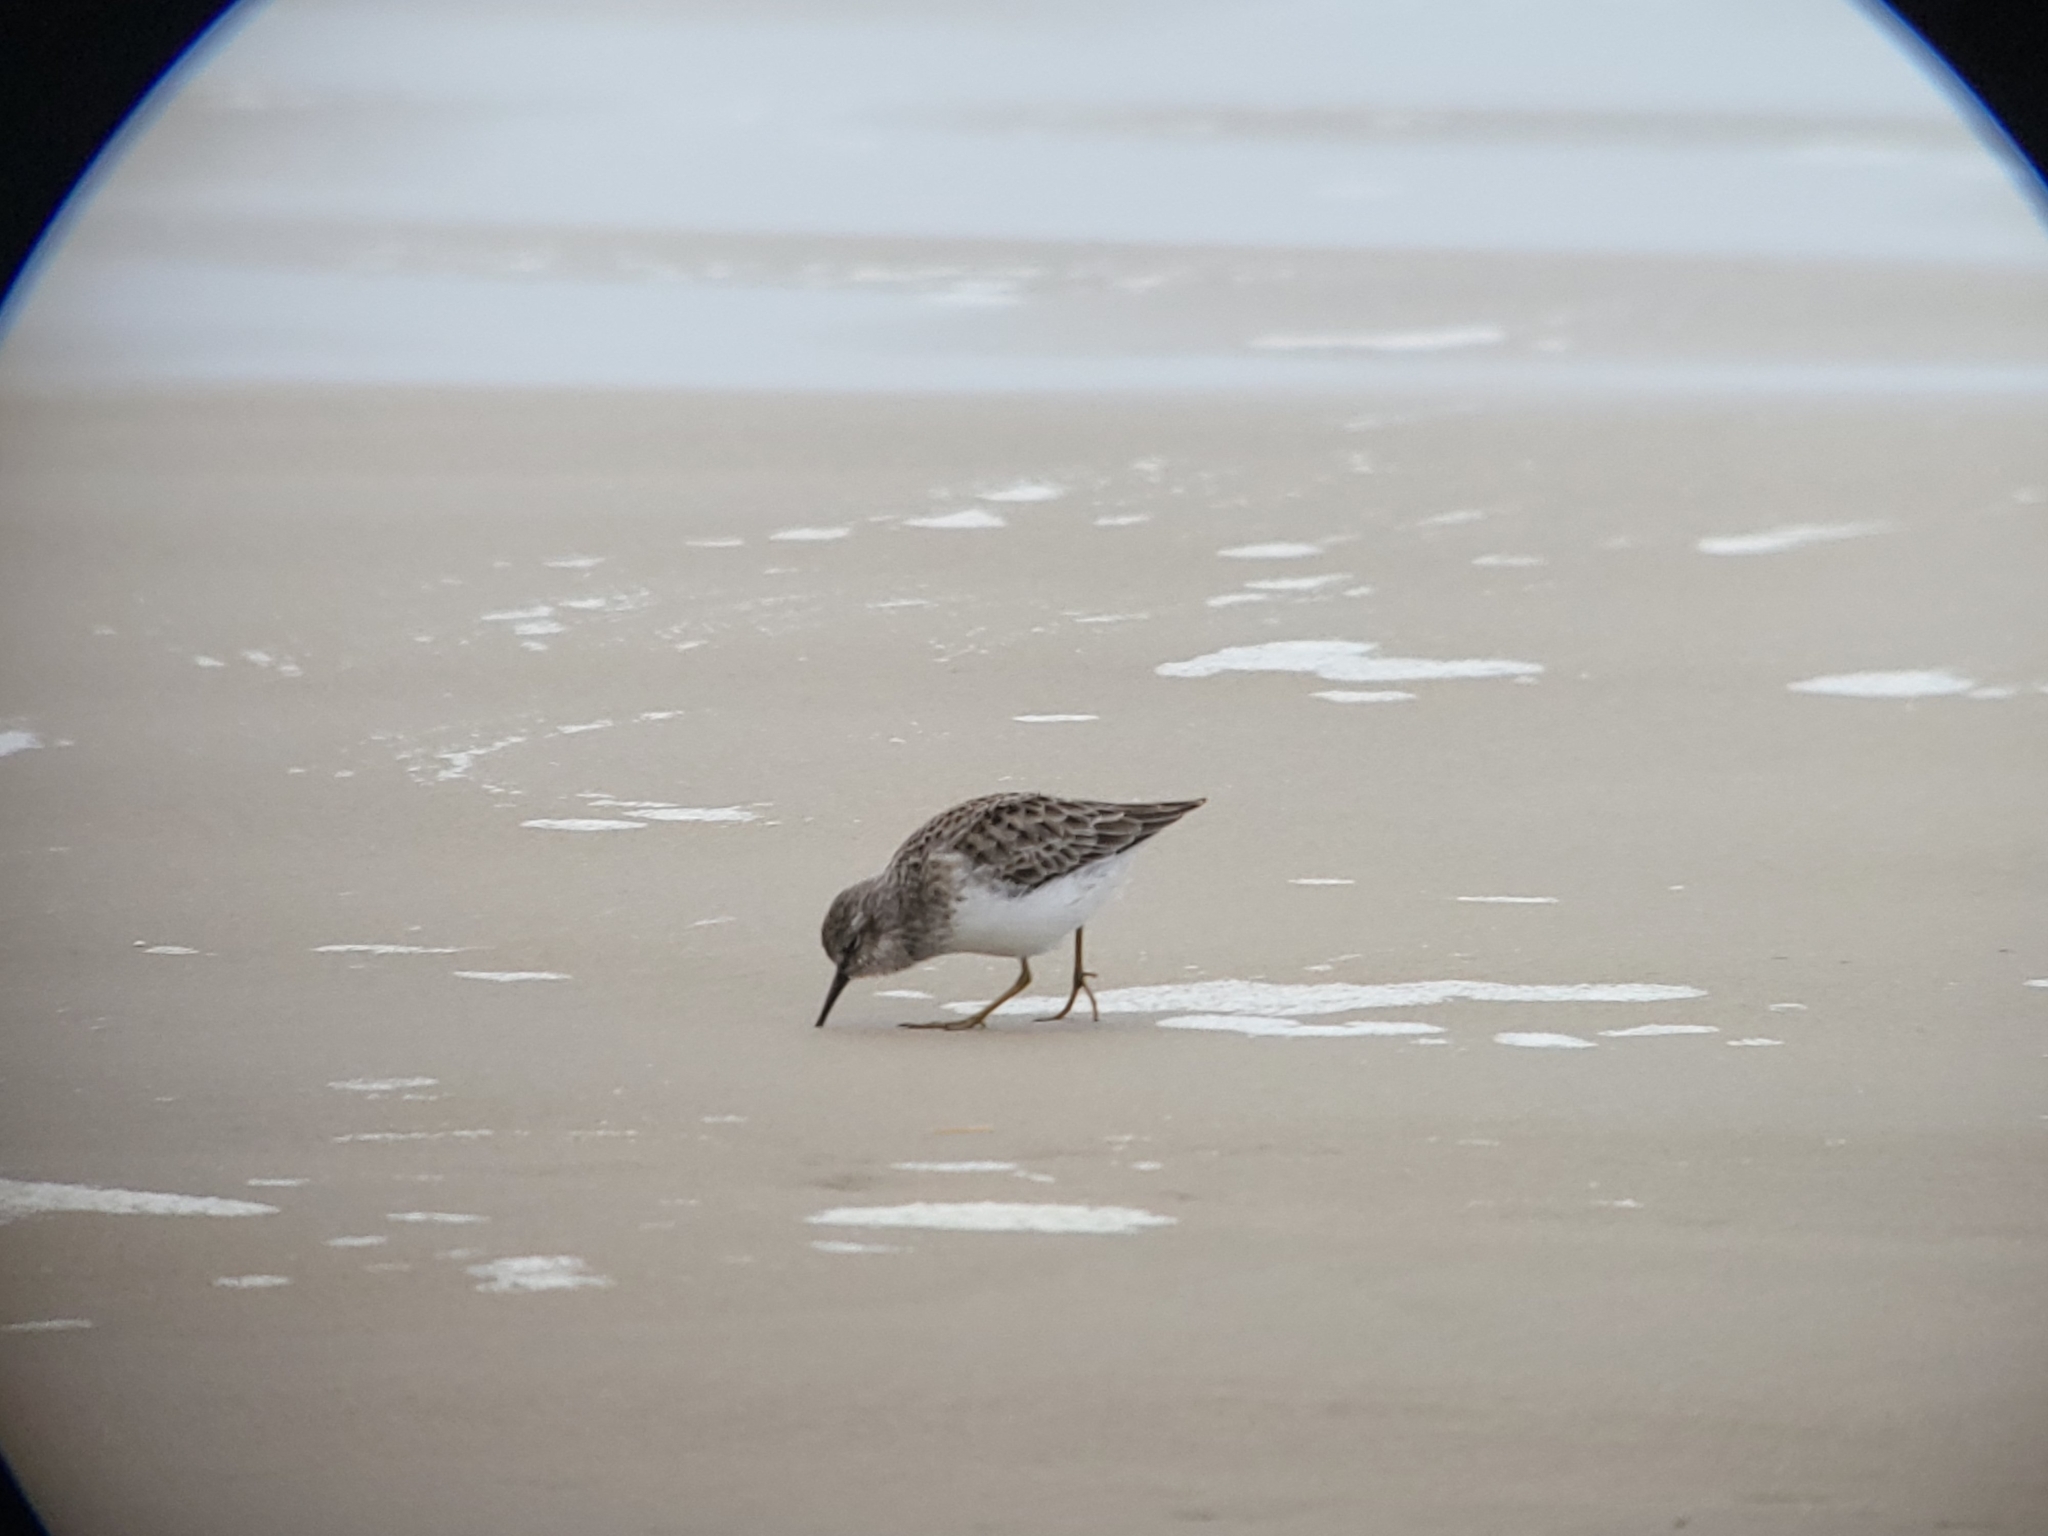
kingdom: Animalia
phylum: Chordata
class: Aves
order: Charadriiformes
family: Scolopacidae
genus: Calidris
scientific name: Calidris minutilla
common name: Least sandpiper
